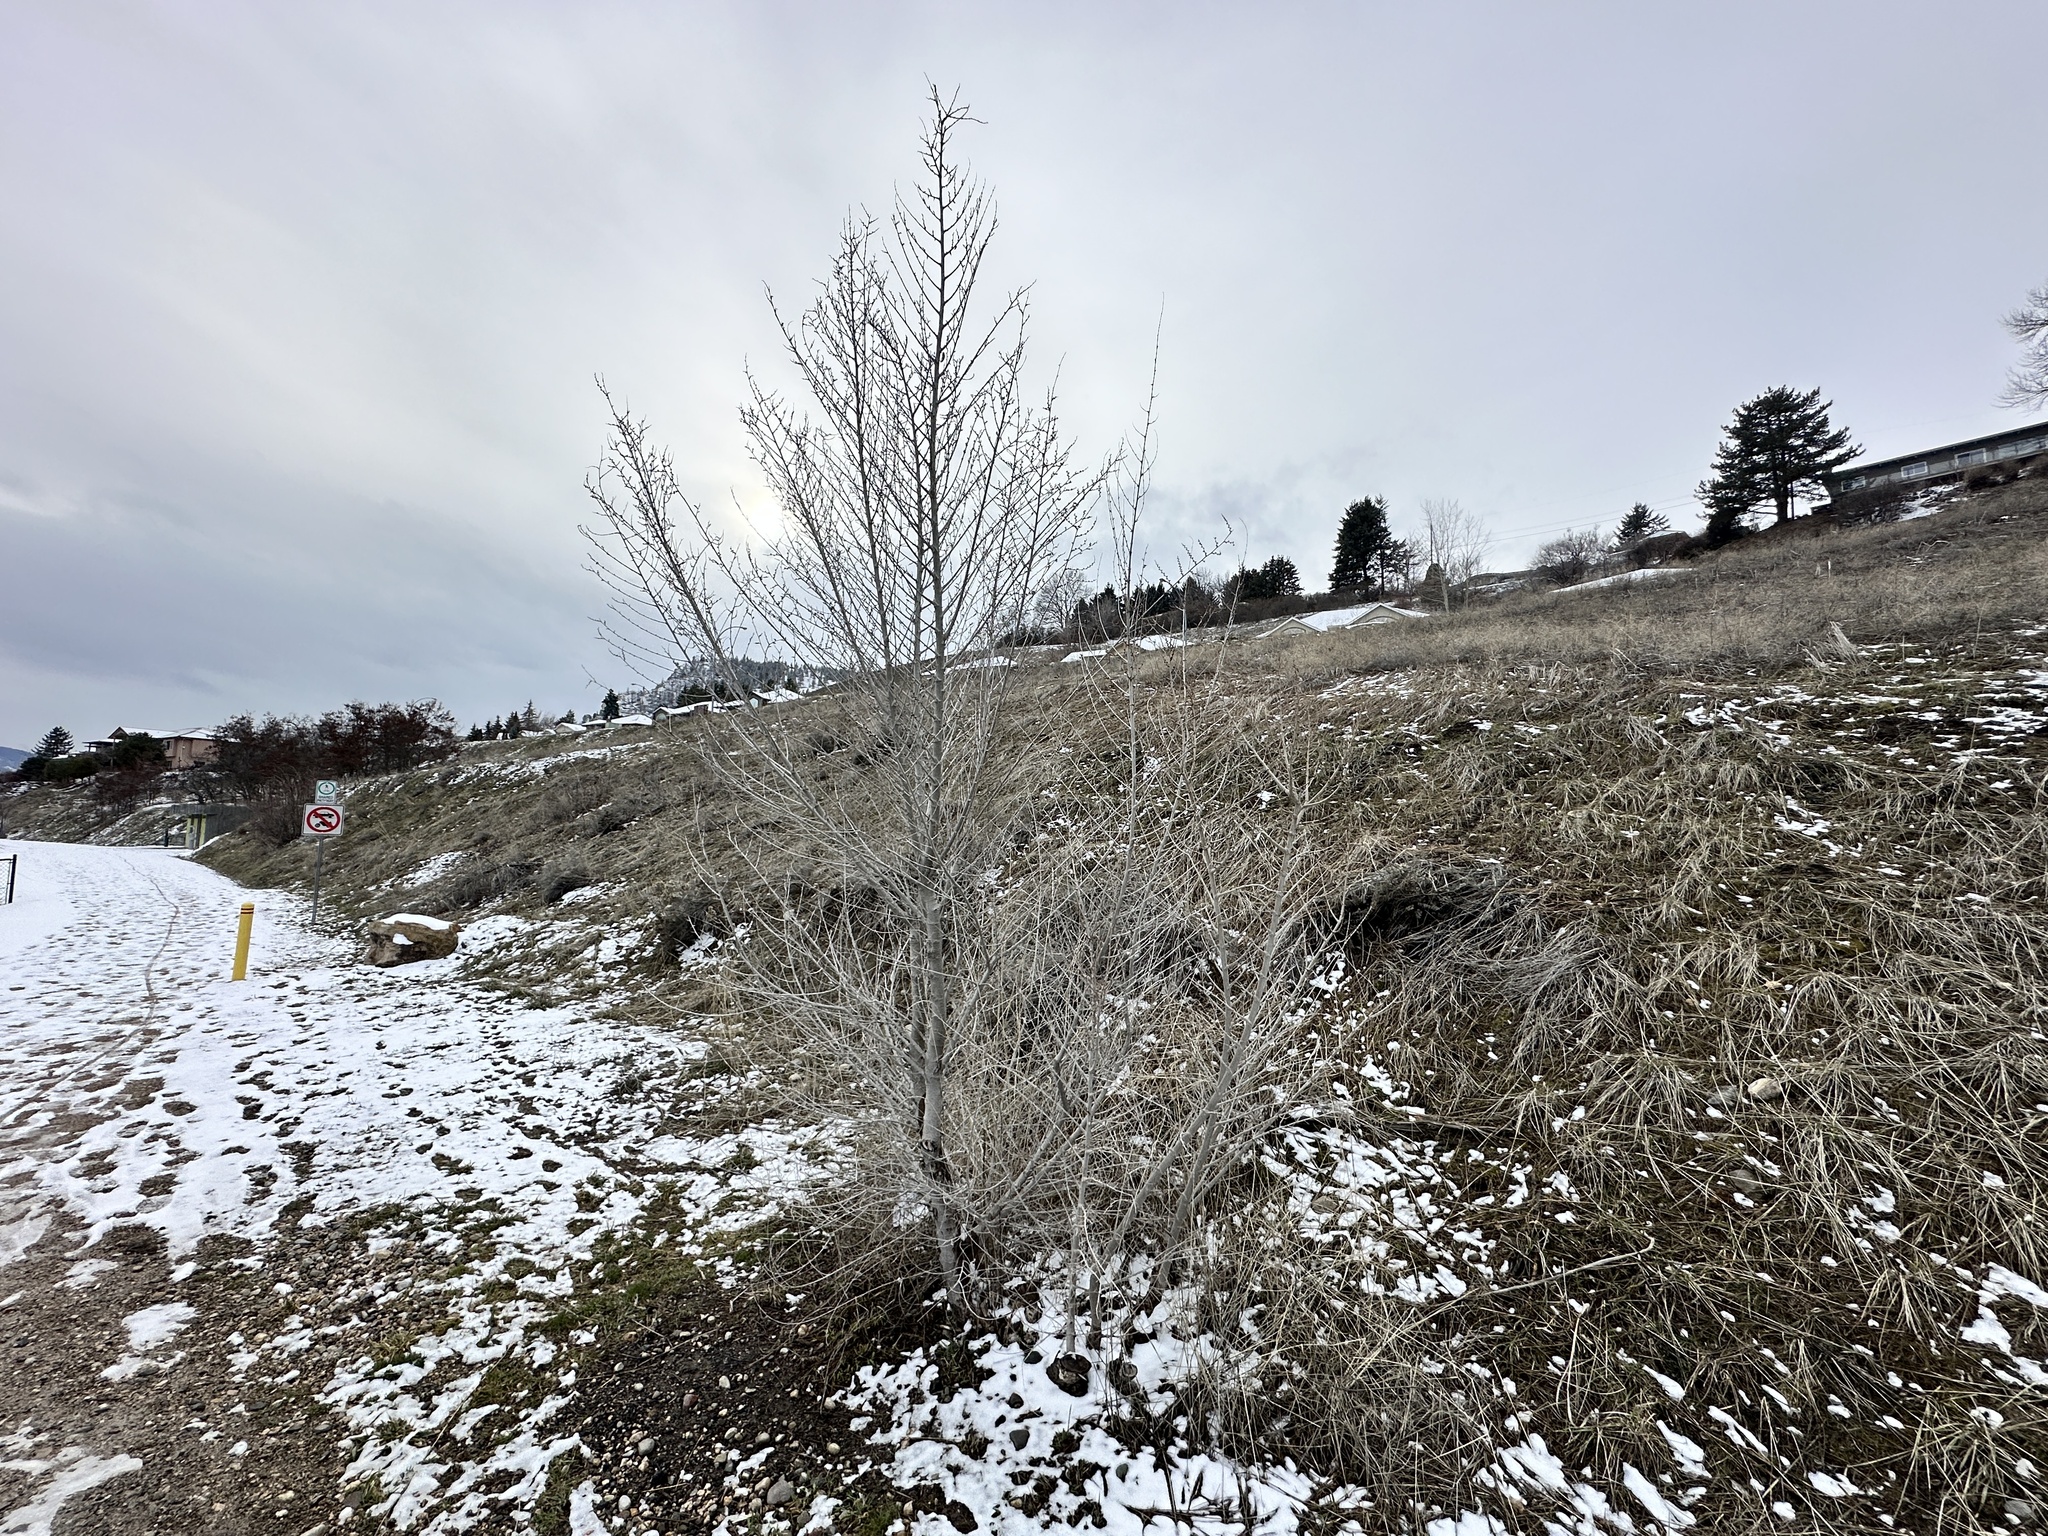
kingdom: Plantae
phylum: Tracheophyta
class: Magnoliopsida
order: Rosales
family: Ulmaceae
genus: Ulmus
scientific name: Ulmus pumila
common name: Siberian elm
